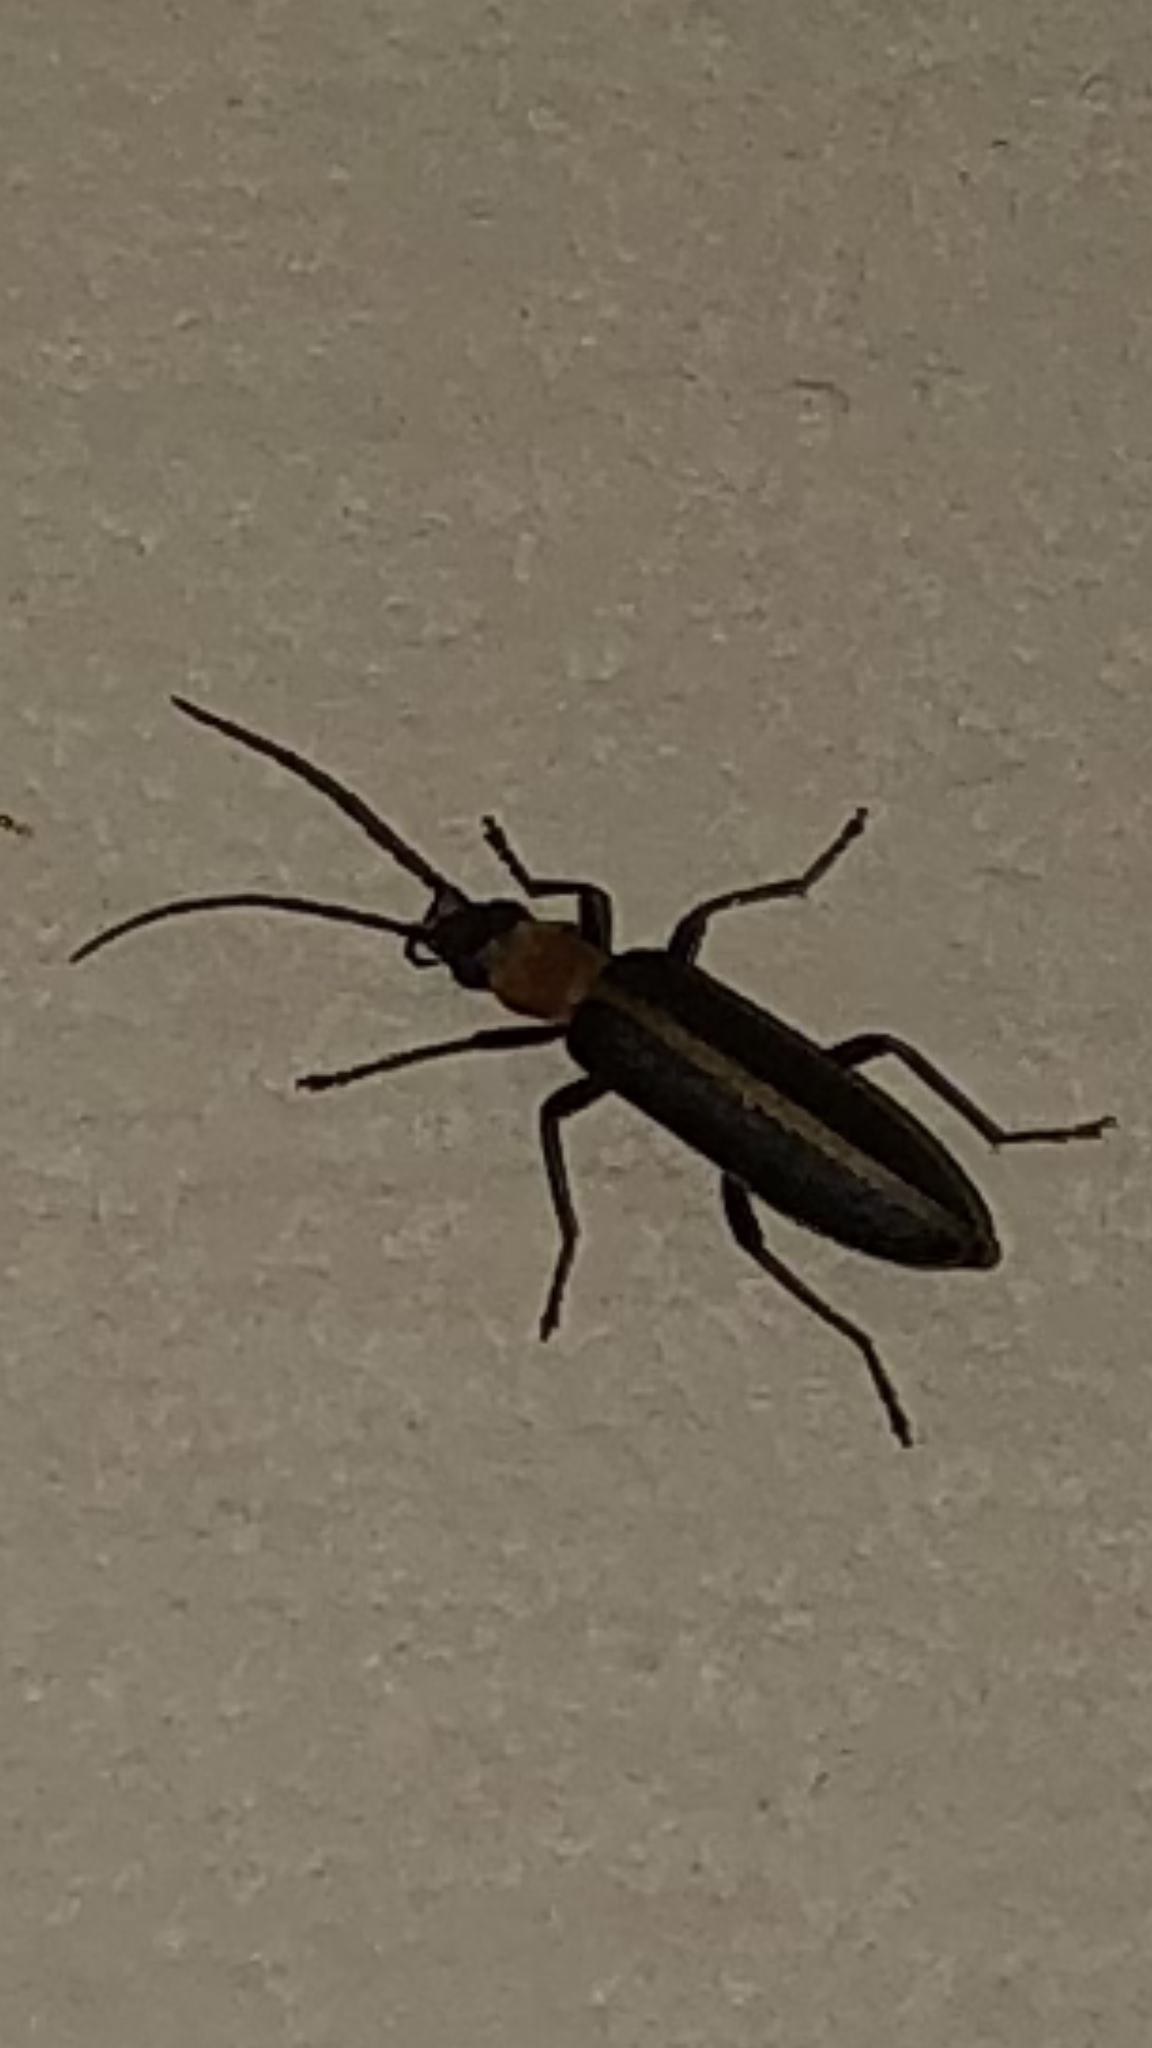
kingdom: Animalia
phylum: Arthropoda
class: Insecta
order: Coleoptera
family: Oedemeridae
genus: Oxycopis
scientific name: Oxycopis mimetica
